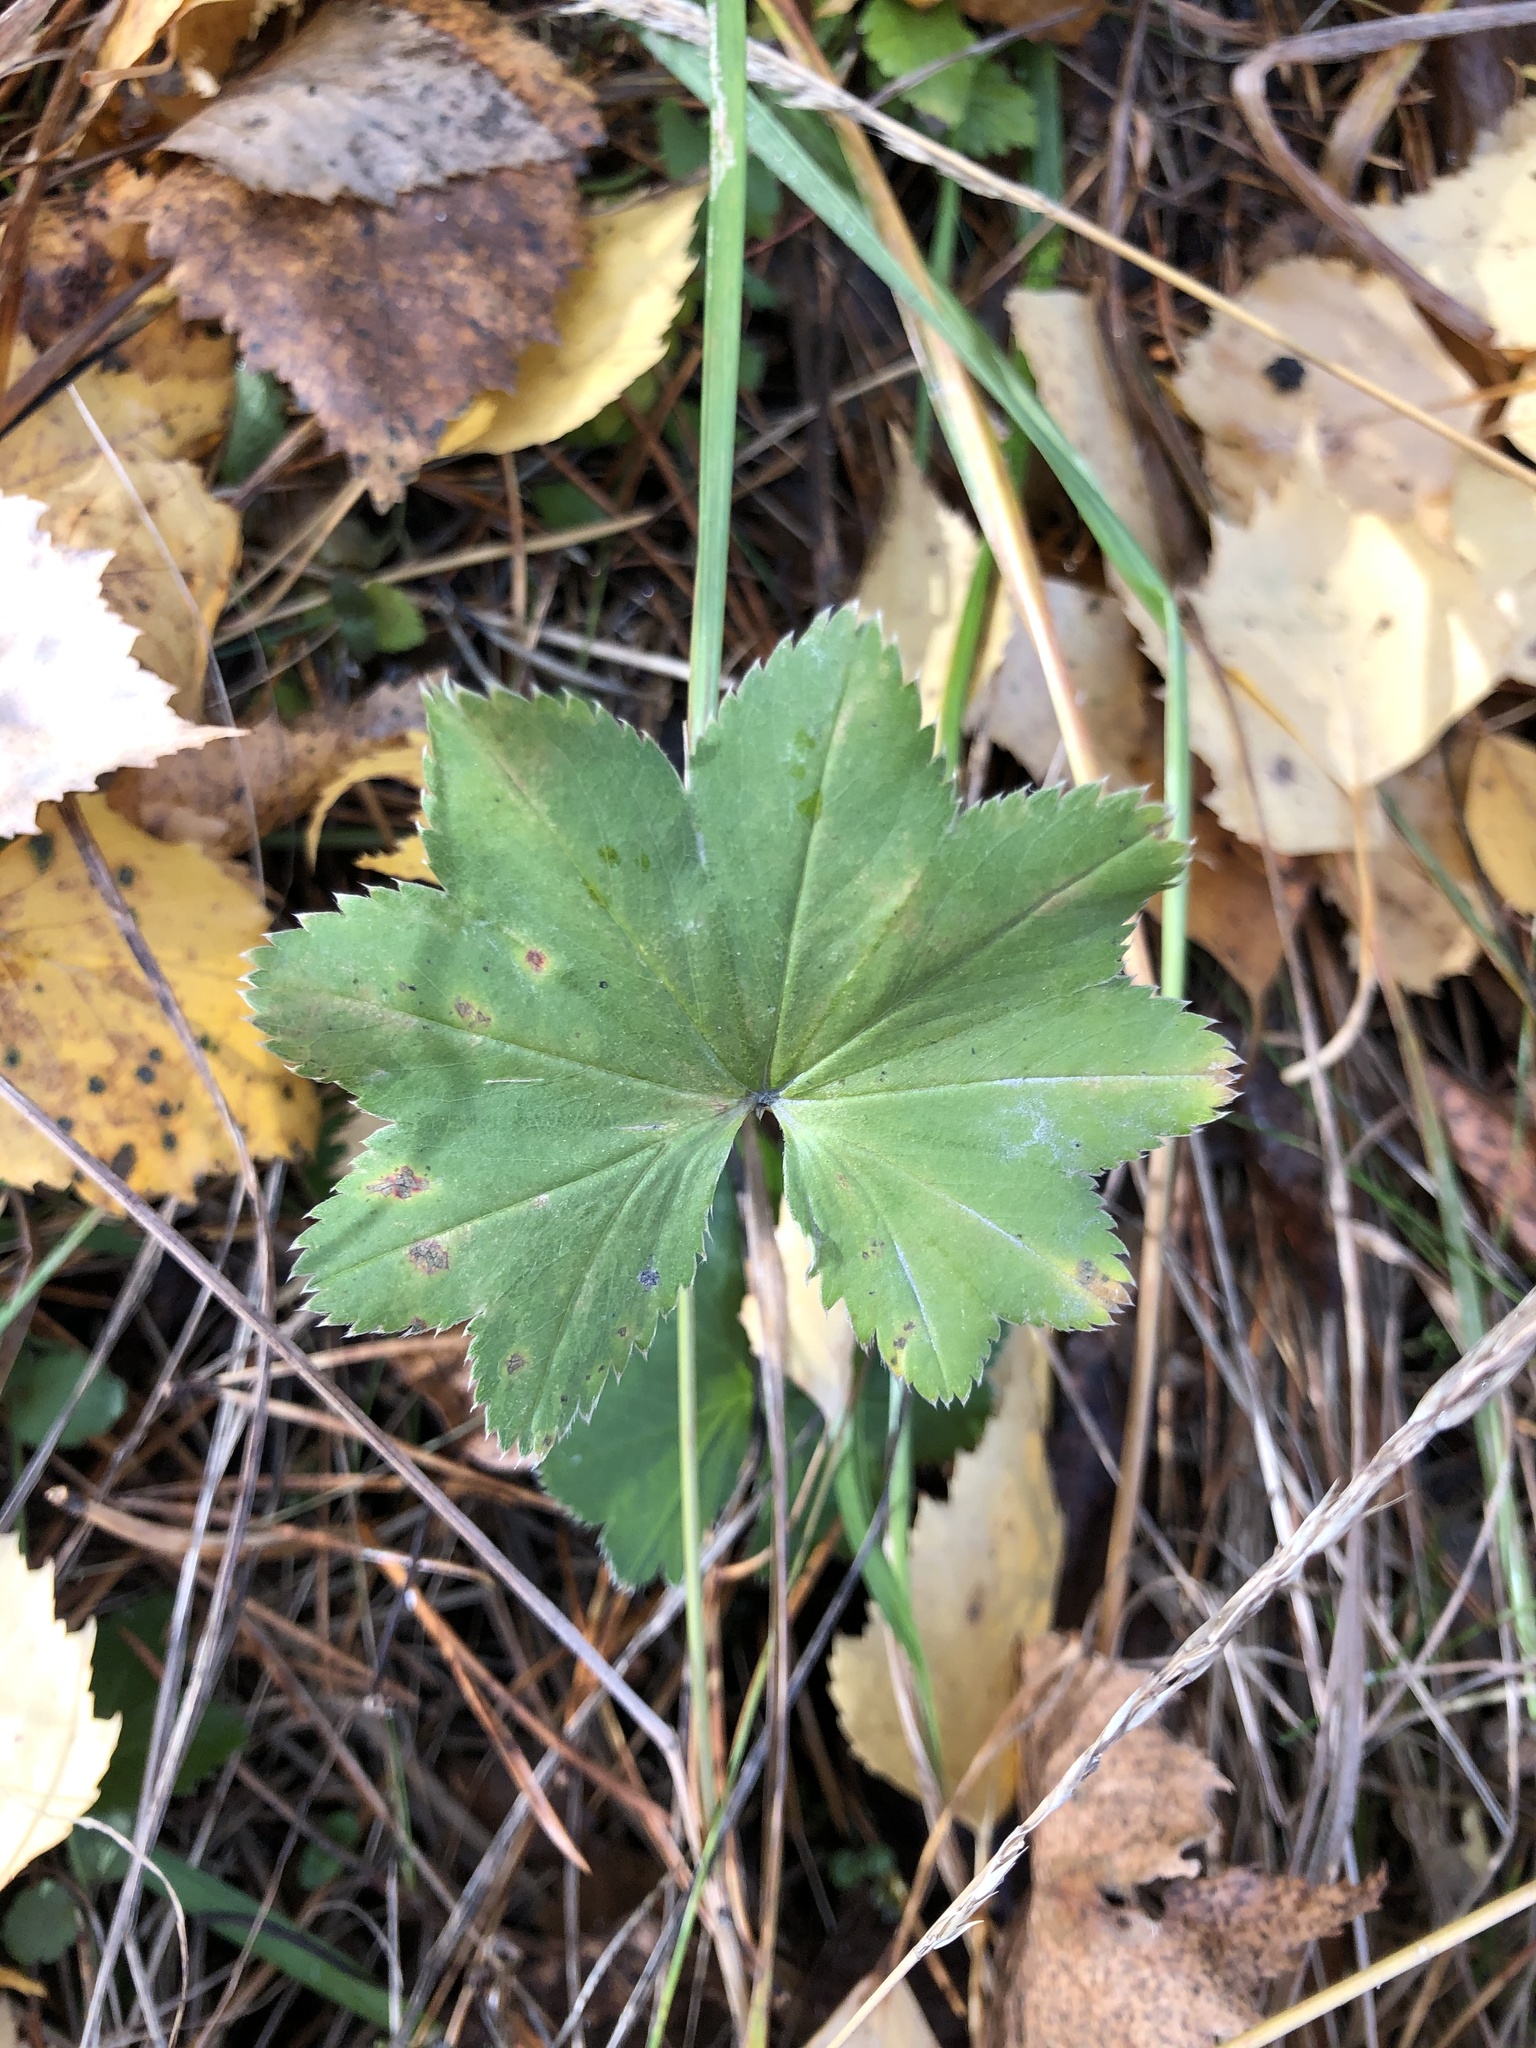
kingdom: Plantae
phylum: Tracheophyta
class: Magnoliopsida
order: Rosales
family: Rosaceae
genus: Alchemilla
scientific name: Alchemilla
